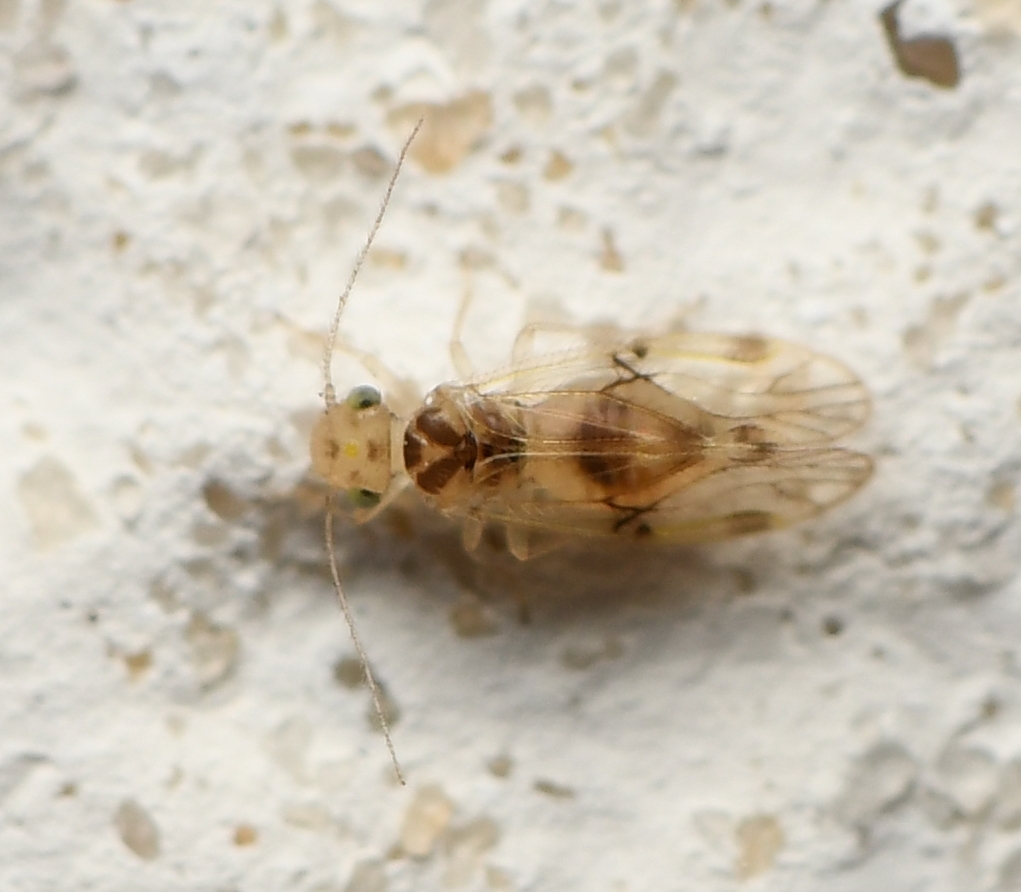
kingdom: Animalia
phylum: Arthropoda
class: Insecta
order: Psocodea
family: Pseudocaeciliidae
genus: Pseudocaecilius
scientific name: Pseudocaecilius citricola
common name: Bark lice
